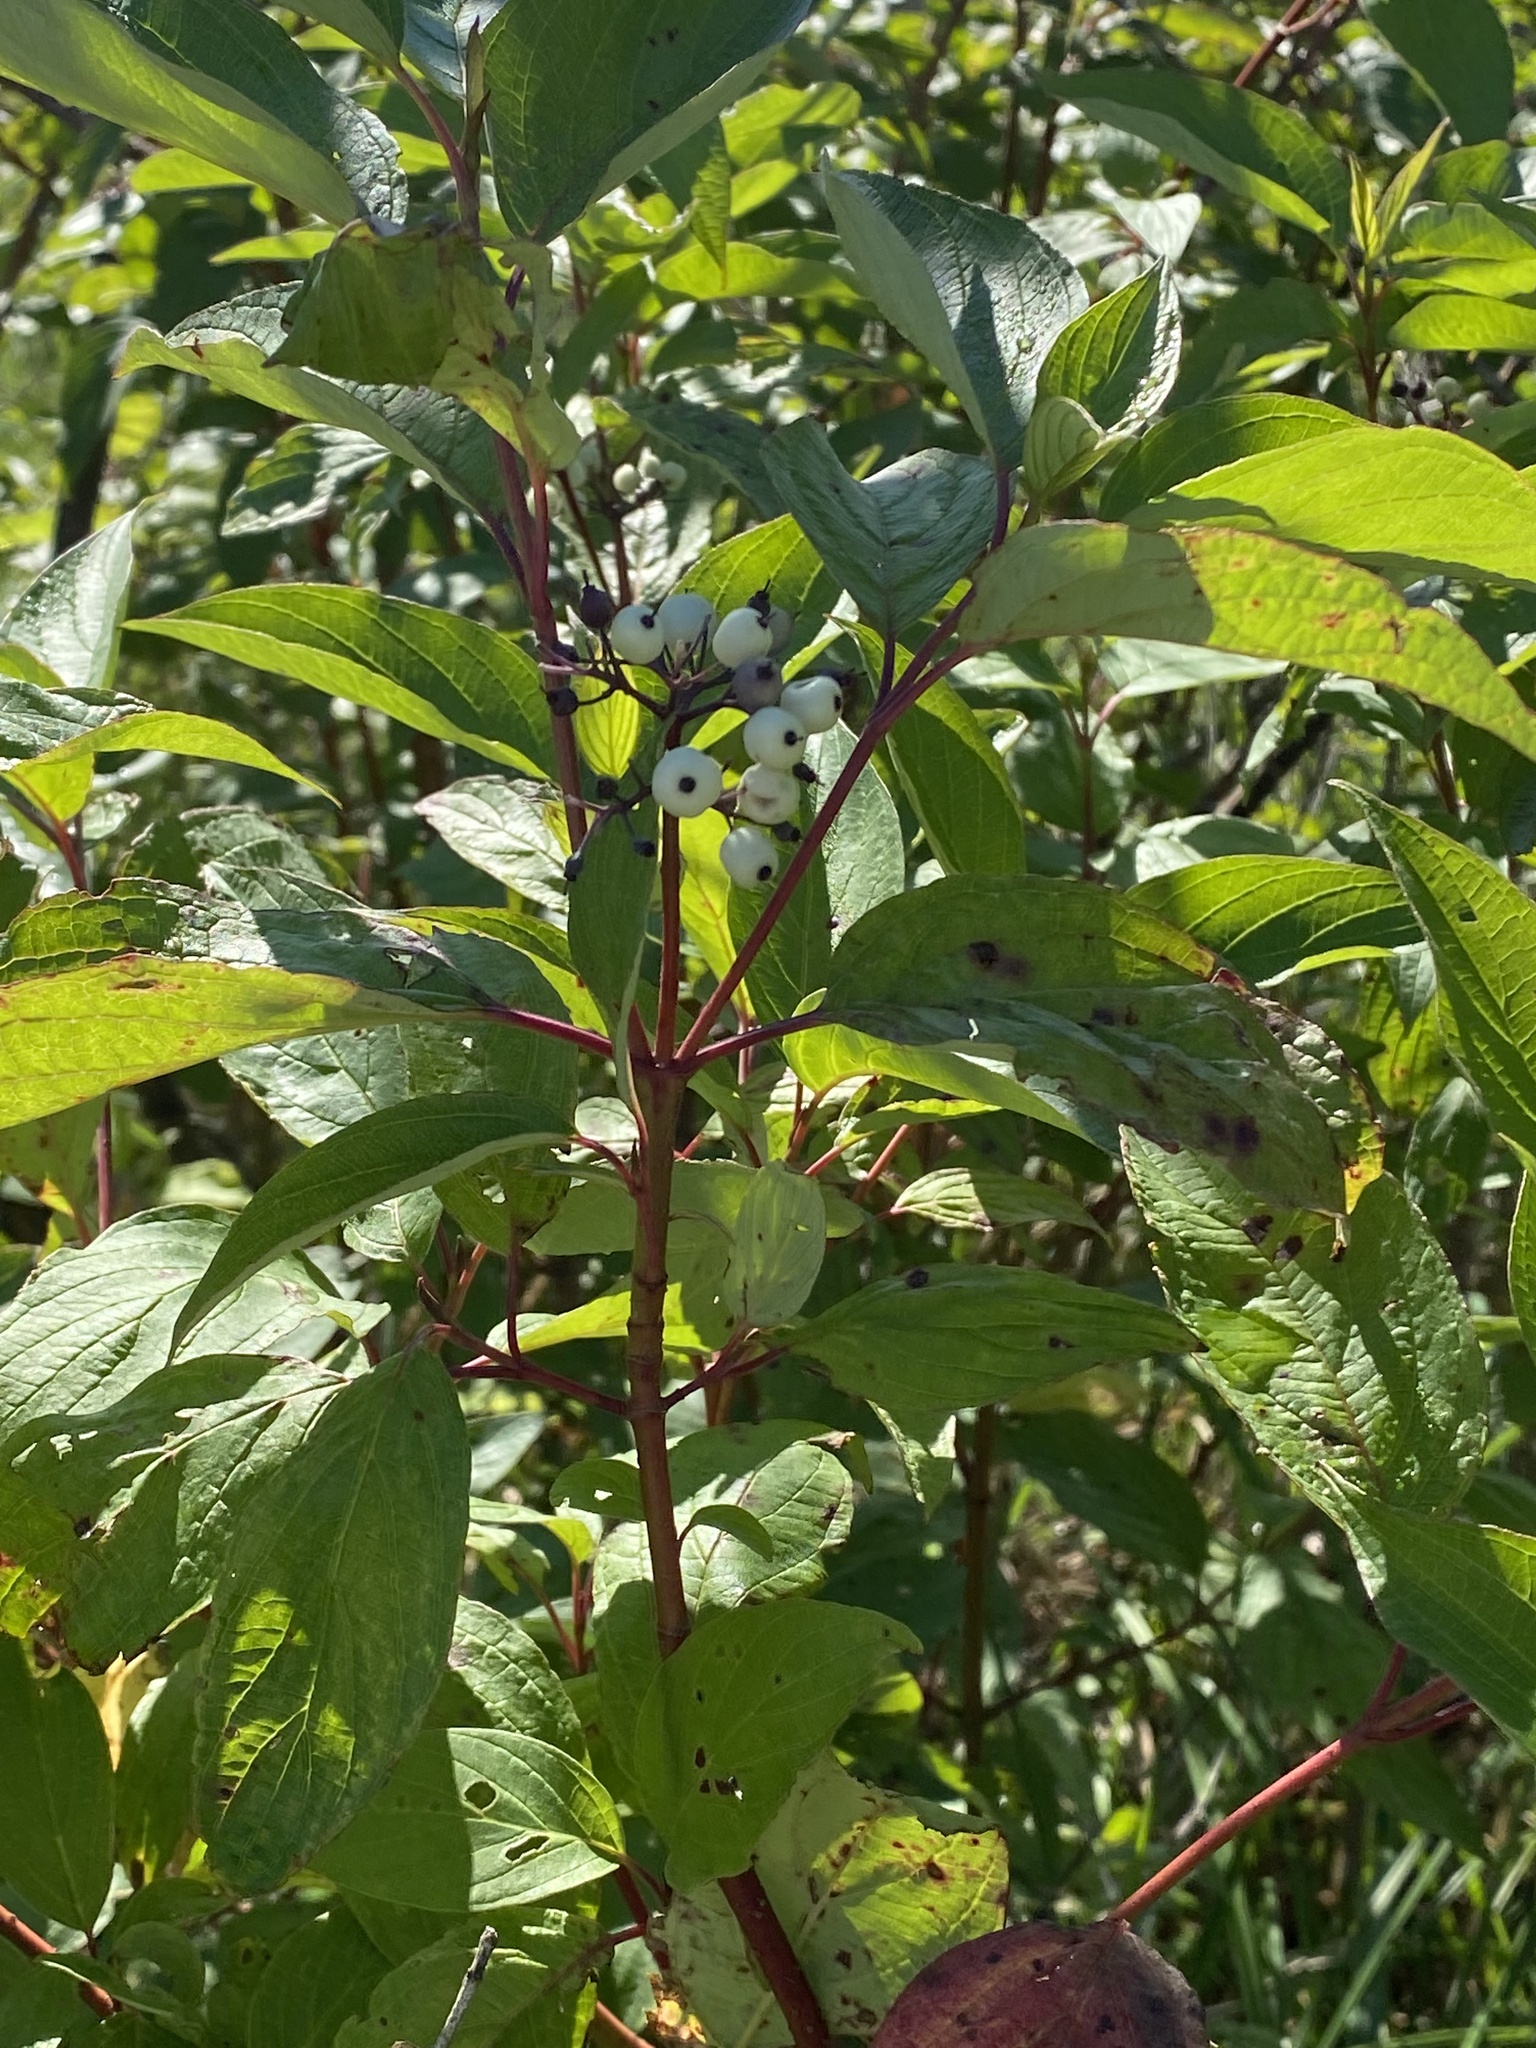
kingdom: Plantae
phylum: Tracheophyta
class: Magnoliopsida
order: Cornales
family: Cornaceae
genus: Cornus
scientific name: Cornus sericea
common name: Red-osier dogwood
